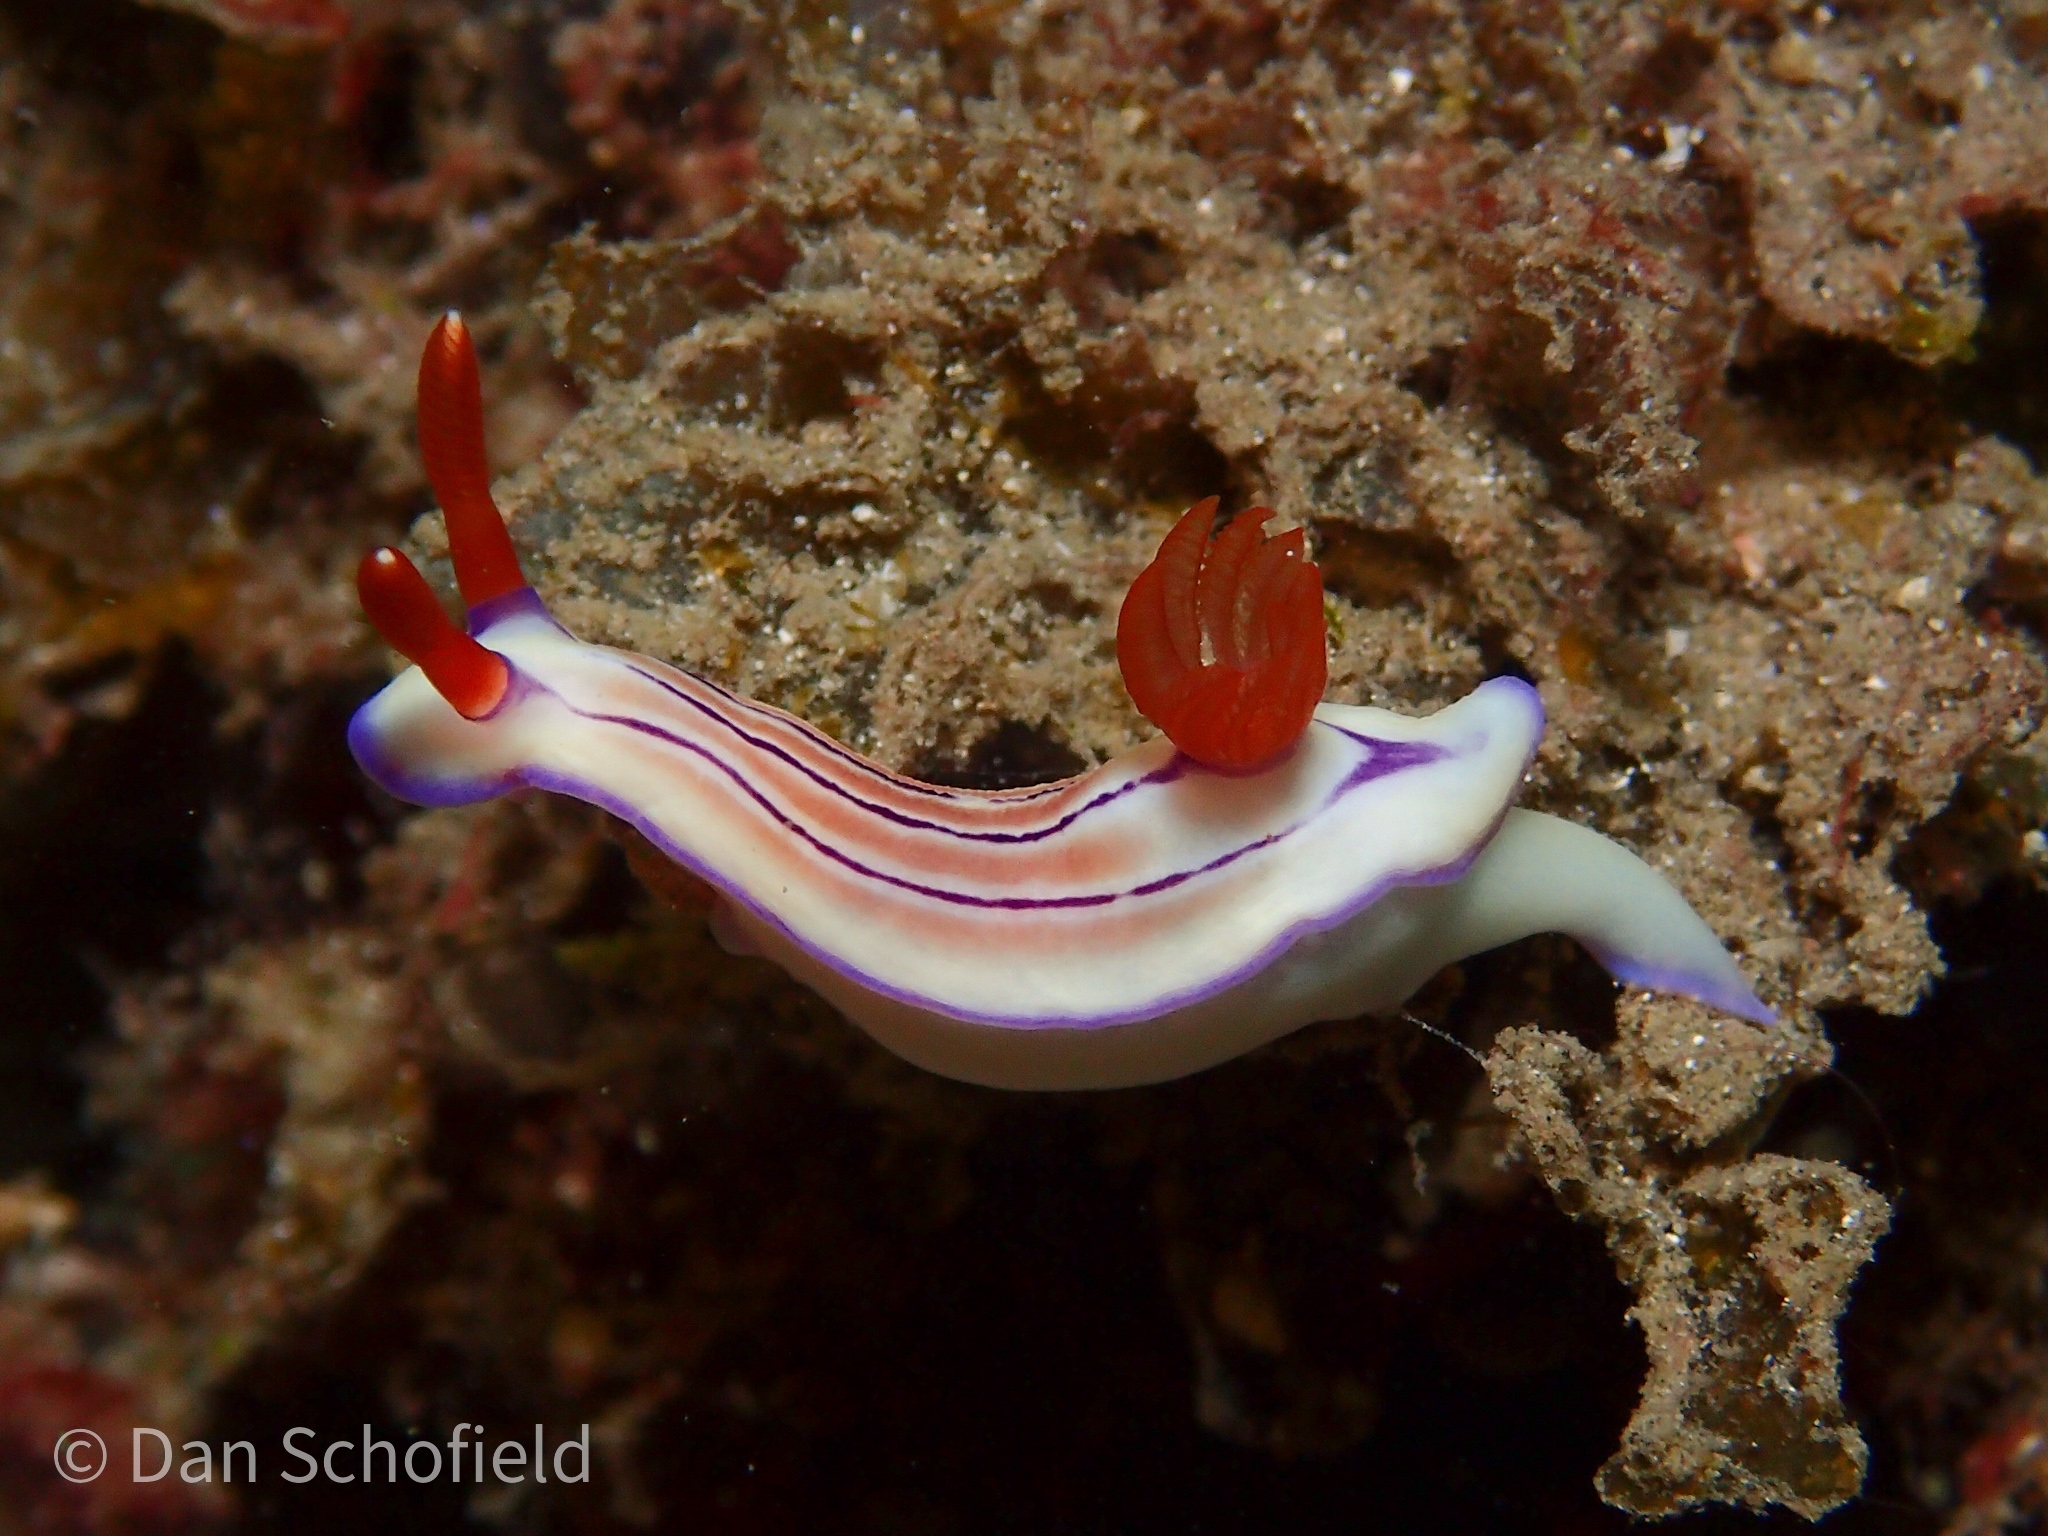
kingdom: Animalia
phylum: Mollusca
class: Gastropoda
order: Nudibranchia
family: Chromodorididae
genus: Hypselodoris
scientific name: Hypselodoris emma
